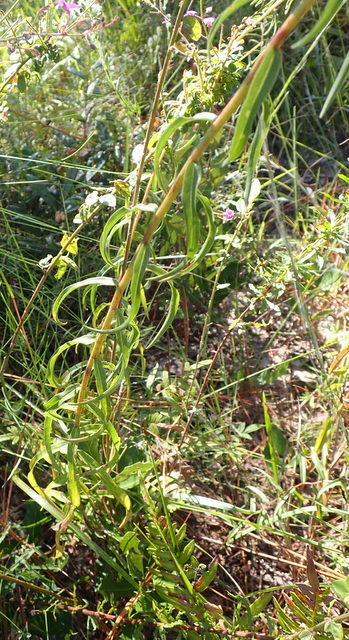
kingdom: Plantae
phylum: Tracheophyta
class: Magnoliopsida
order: Asterales
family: Asteraceae
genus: Solidago
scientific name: Solidago odora
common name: Anise-scented goldenrod
